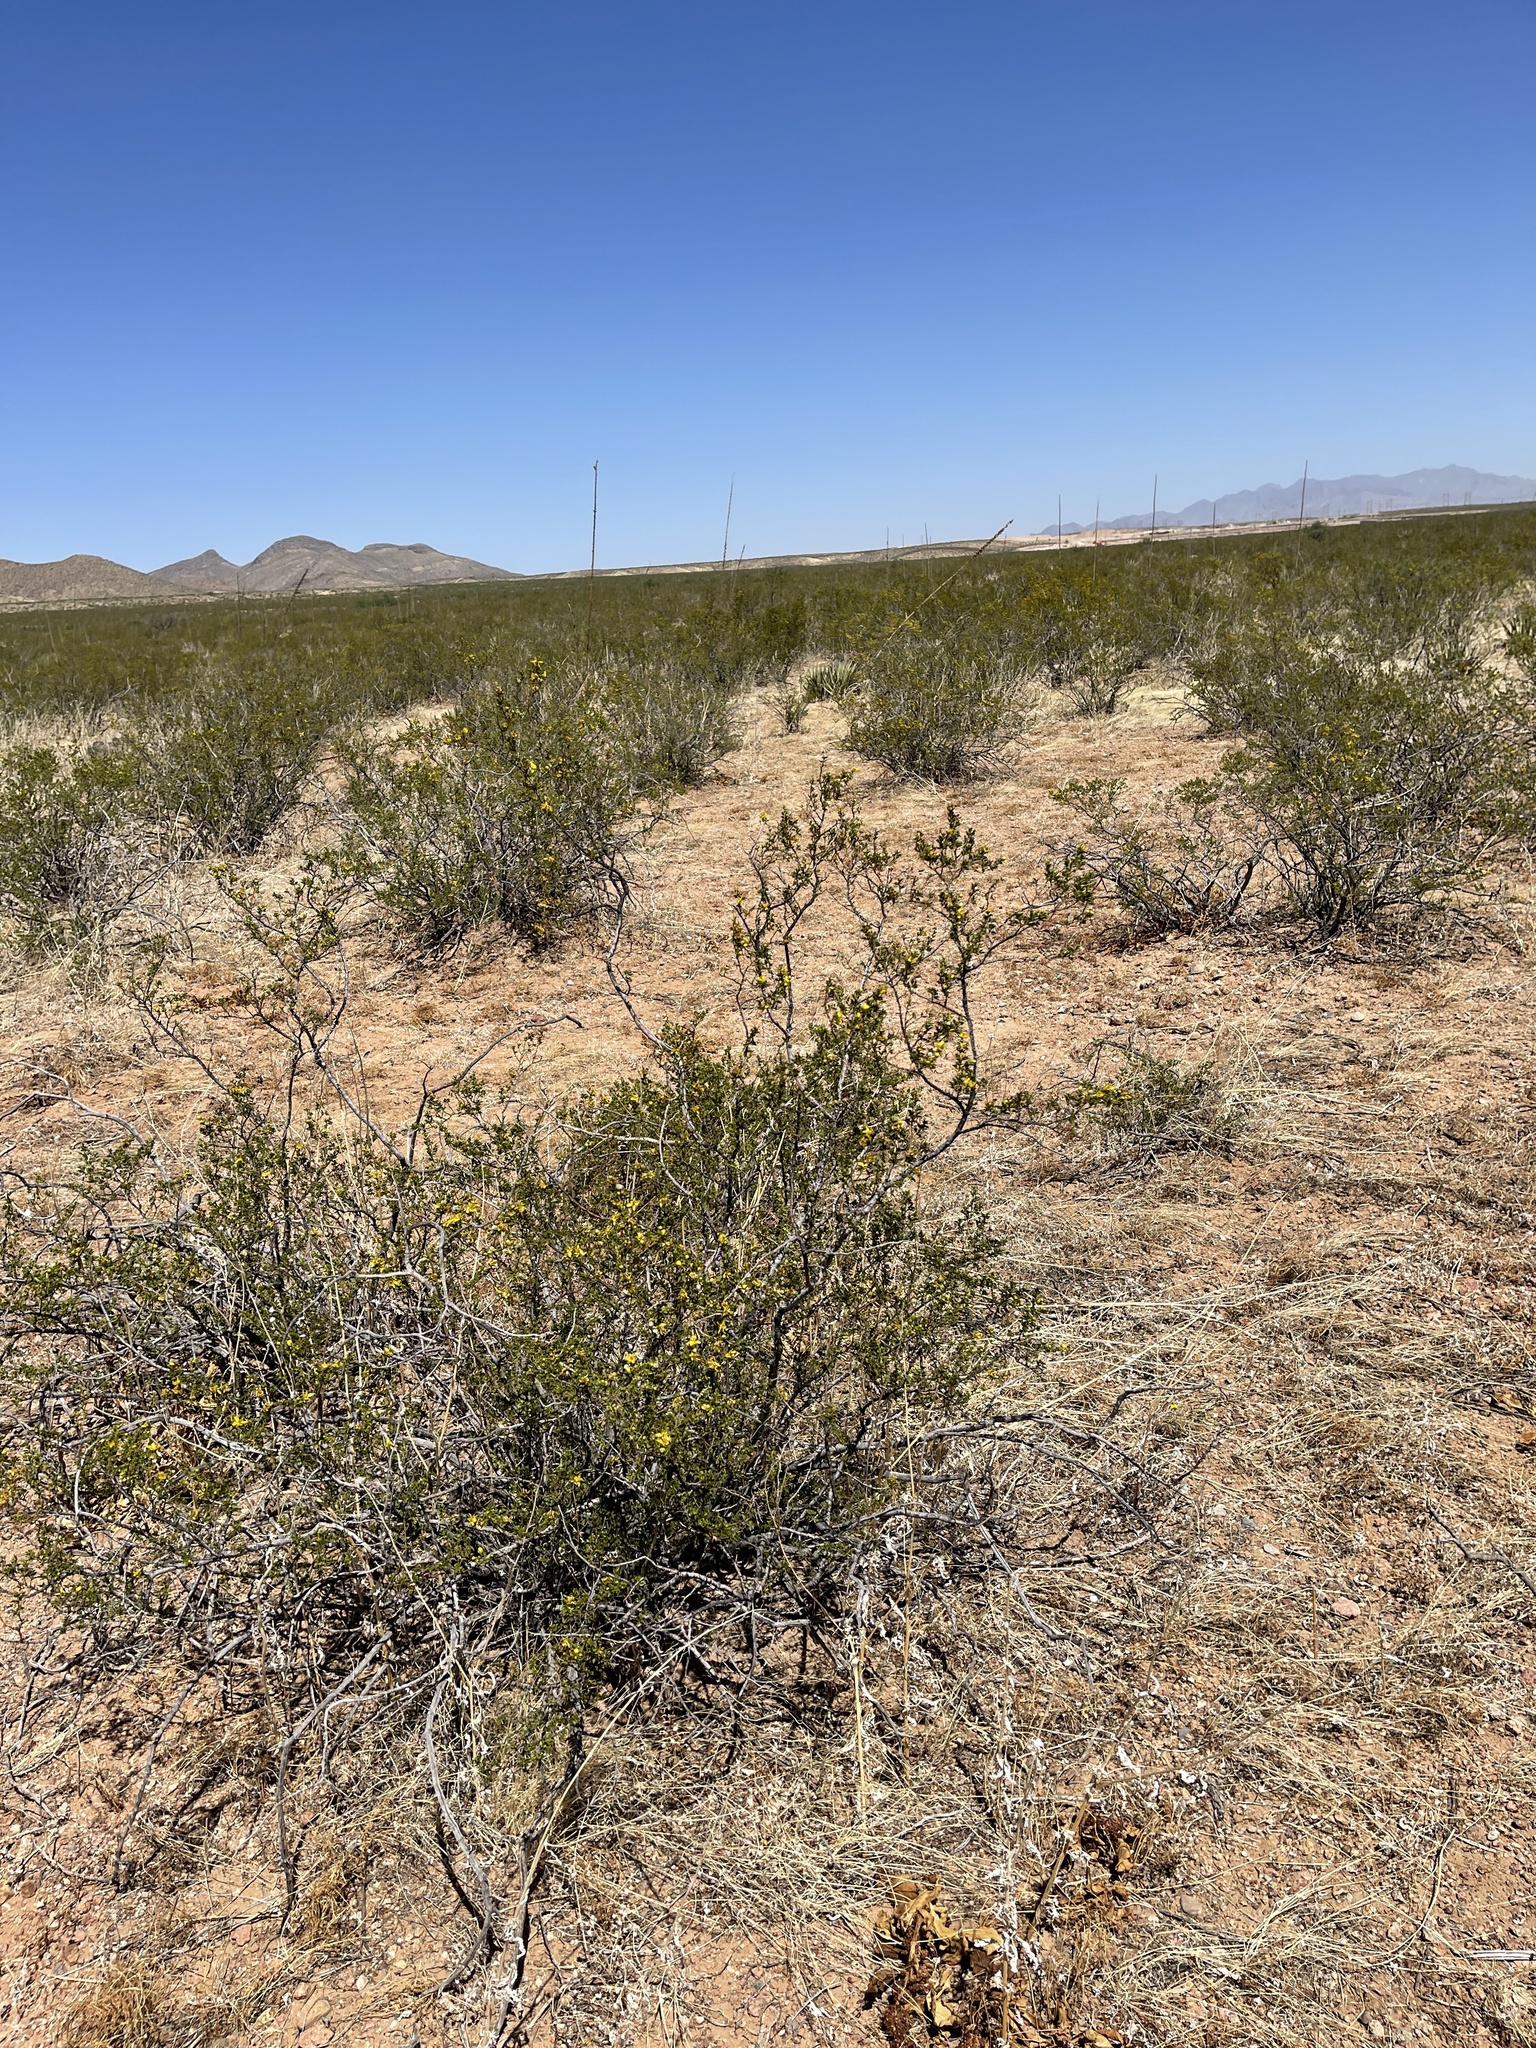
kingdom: Plantae
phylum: Tracheophyta
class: Magnoliopsida
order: Zygophyllales
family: Zygophyllaceae
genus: Larrea
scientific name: Larrea tridentata
